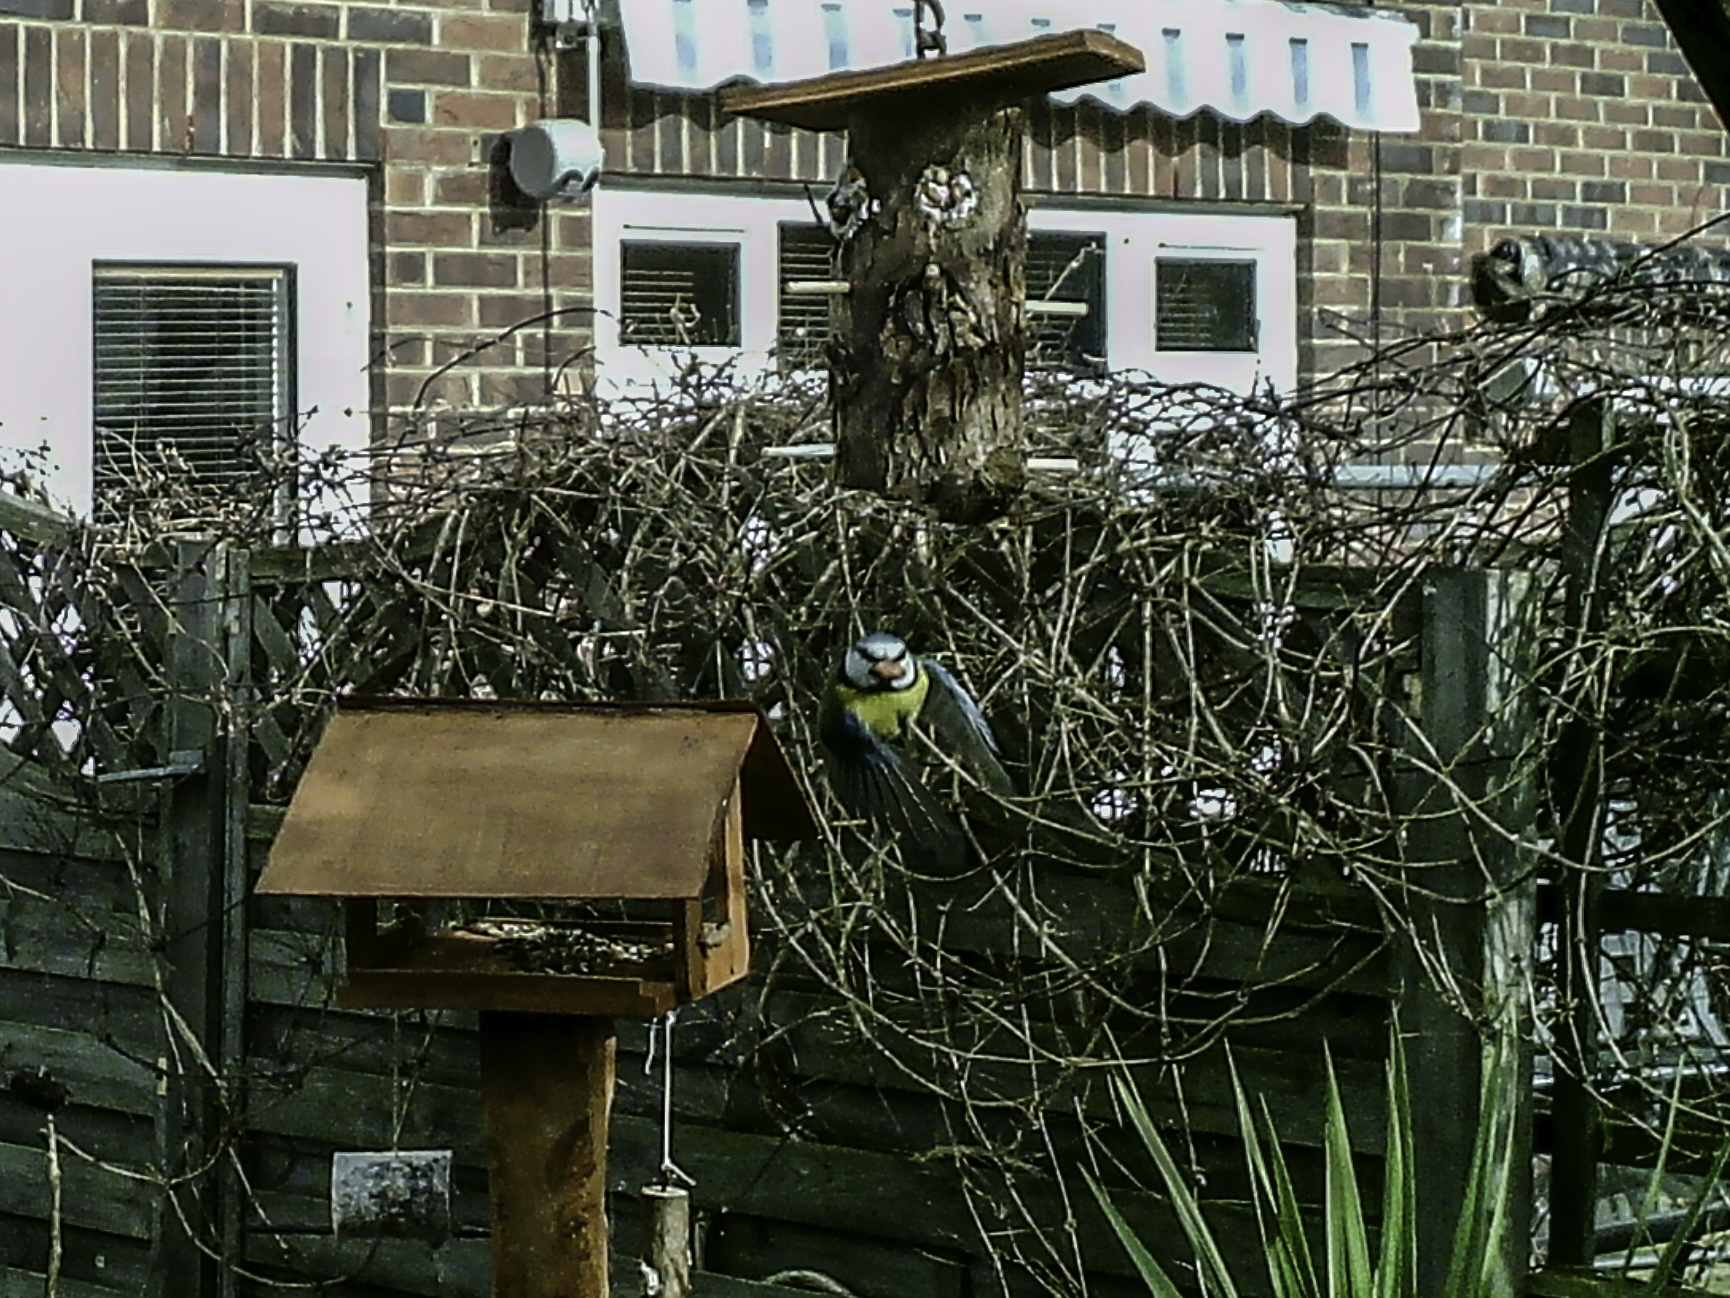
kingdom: Animalia
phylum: Chordata
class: Aves
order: Passeriformes
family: Paridae
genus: Cyanistes
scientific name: Cyanistes caeruleus
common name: Eurasian blue tit
